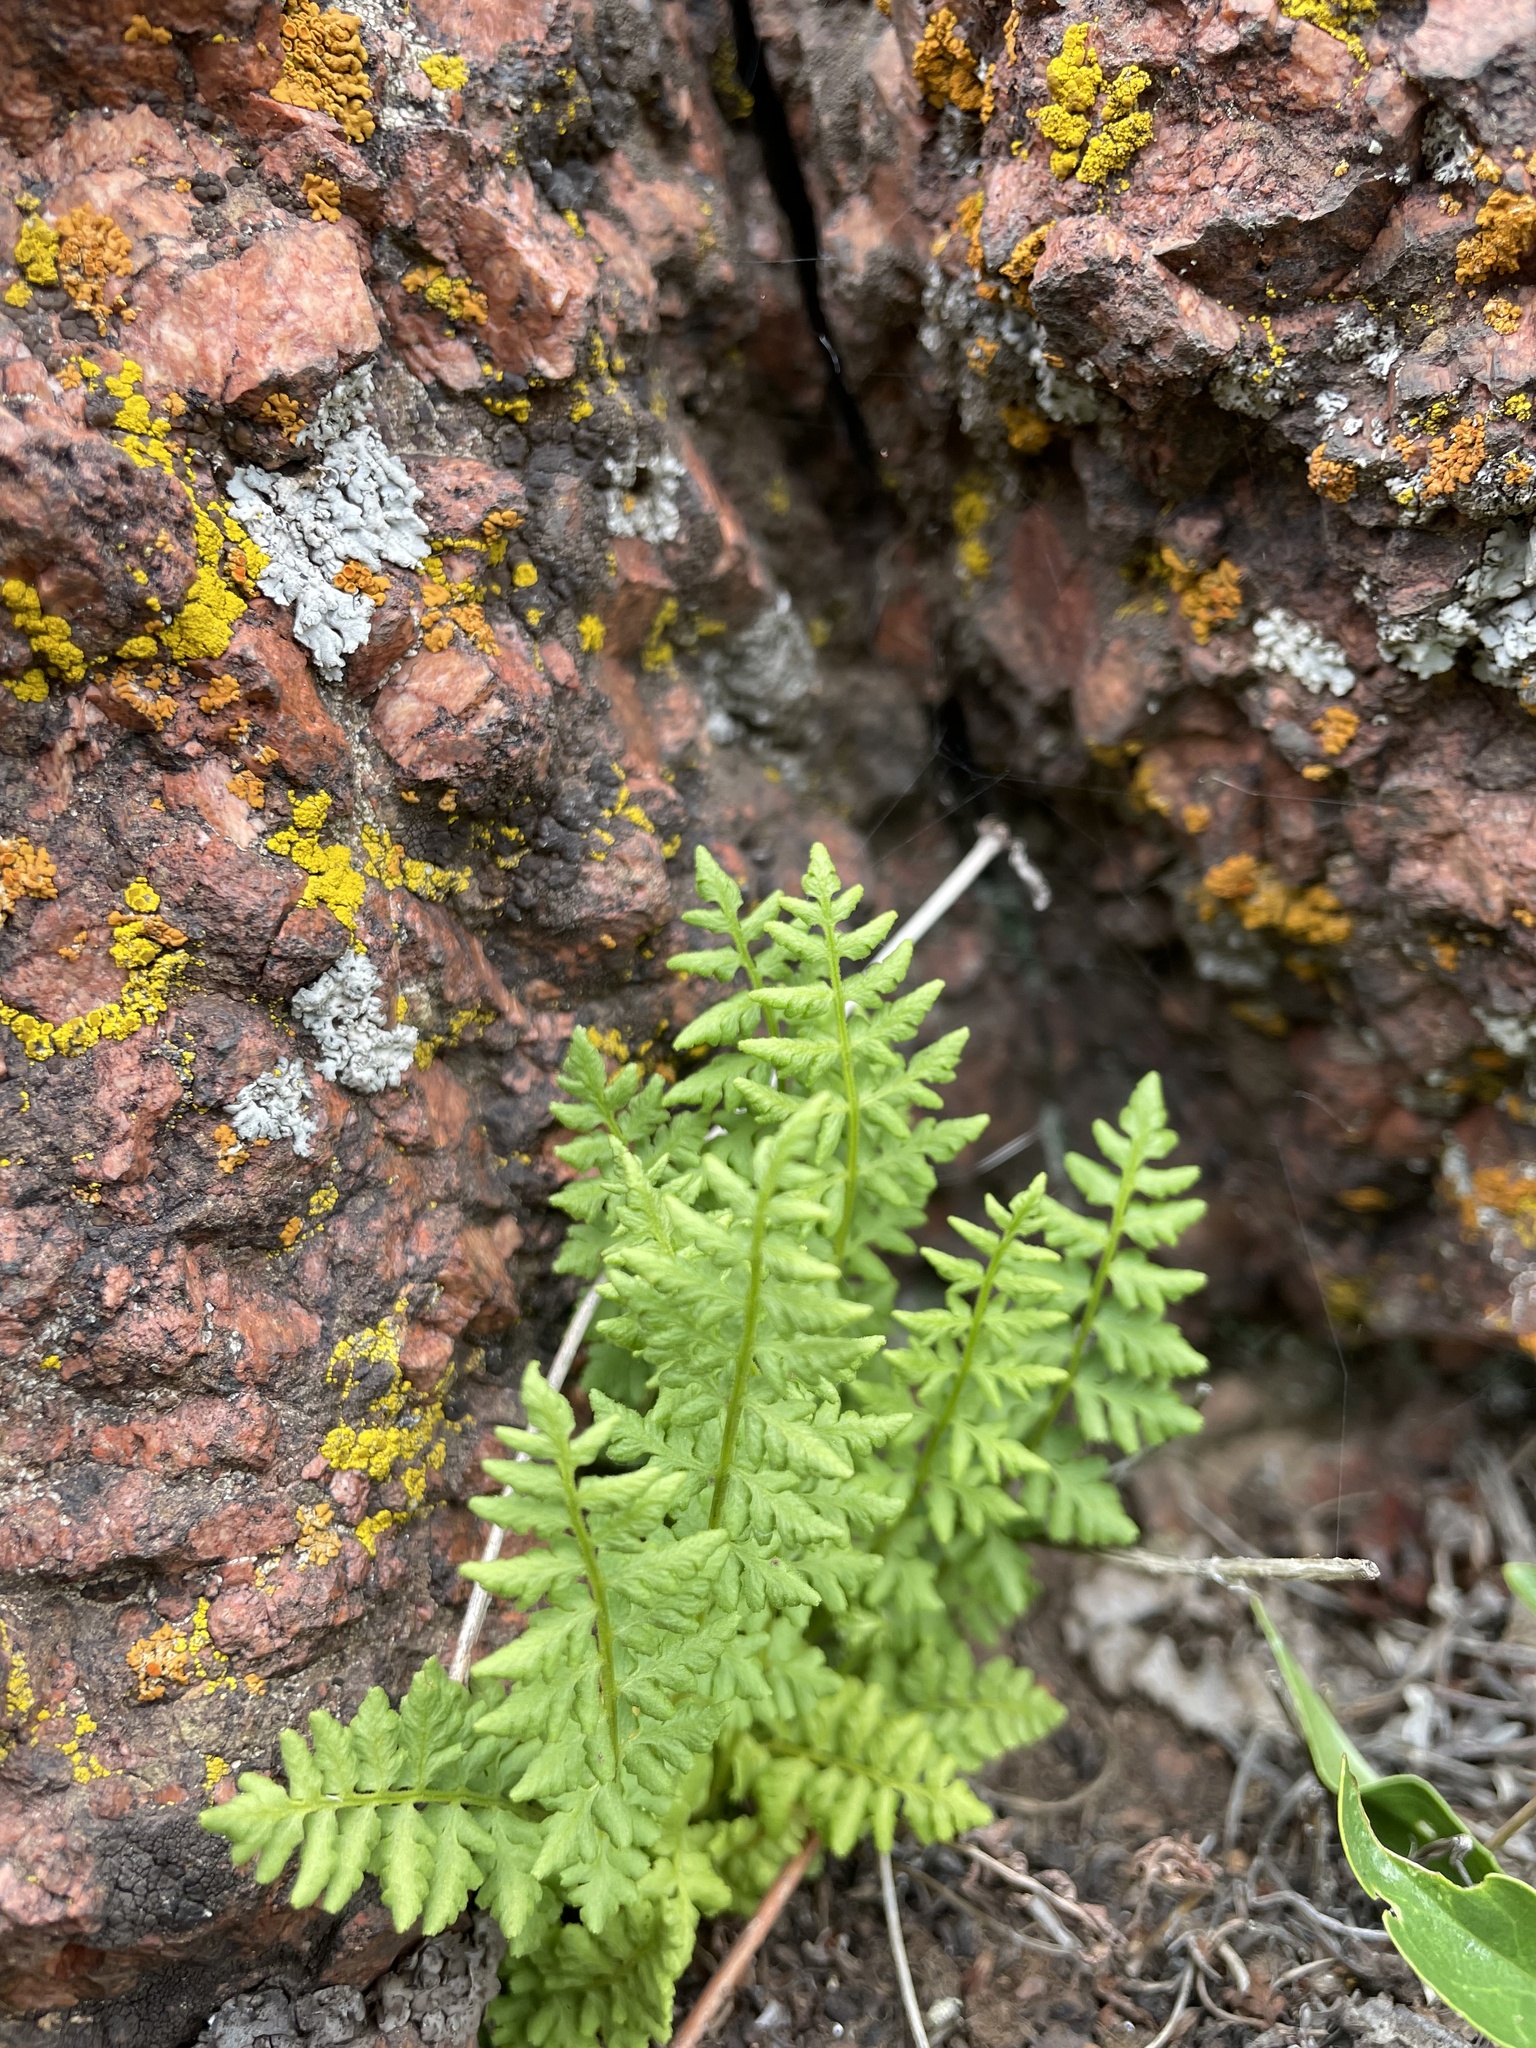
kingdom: Plantae
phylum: Tracheophyta
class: Polypodiopsida
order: Polypodiales
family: Woodsiaceae
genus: Physematium
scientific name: Physematium oreganum
